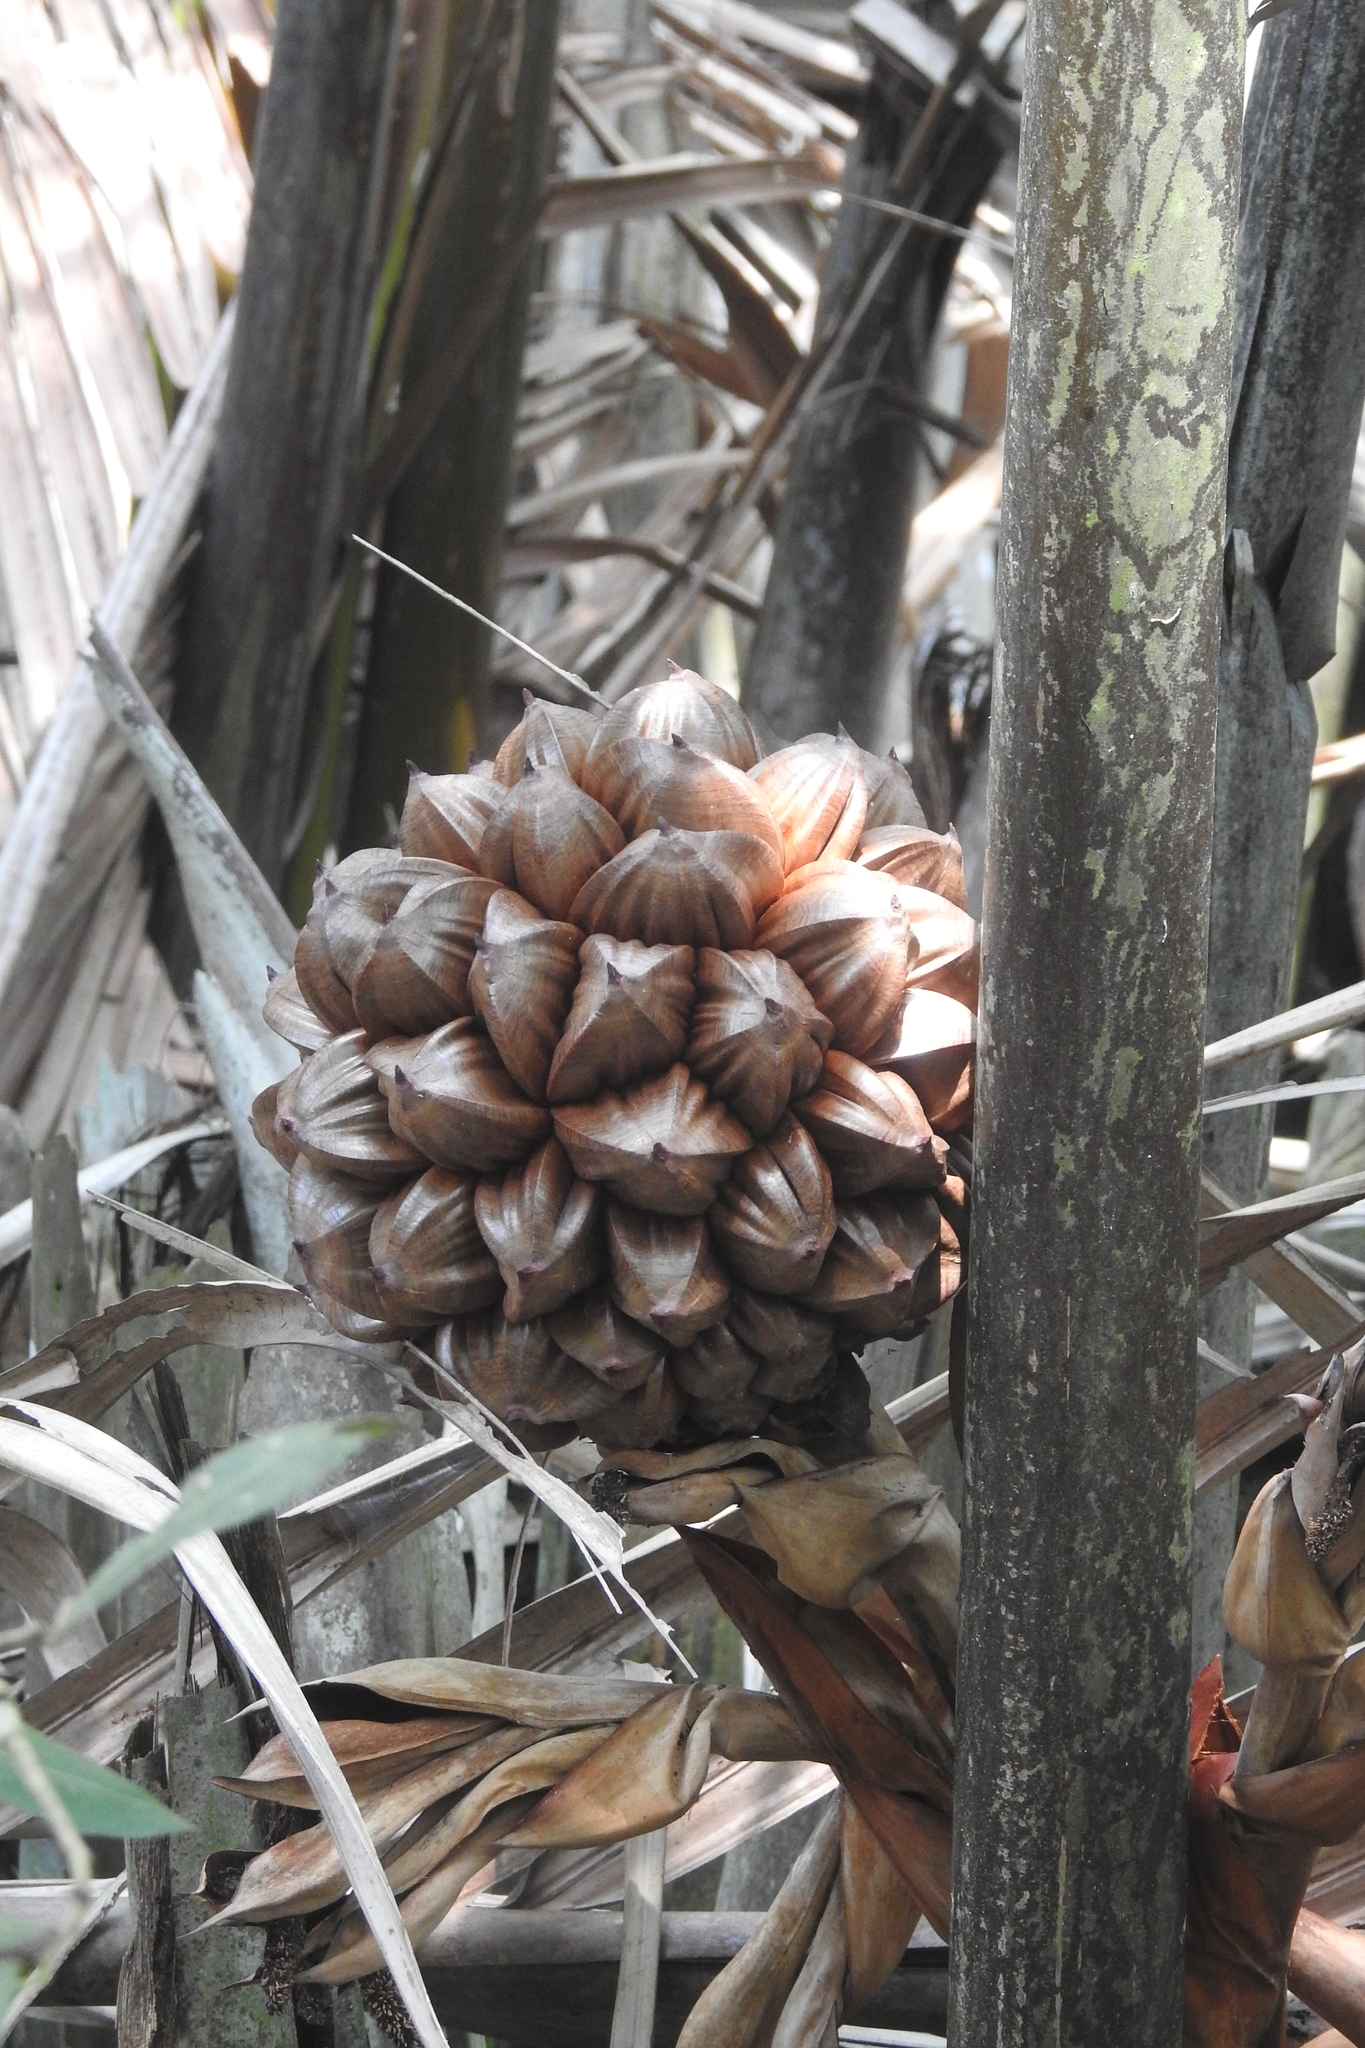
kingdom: Plantae
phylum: Tracheophyta
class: Liliopsida
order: Arecales
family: Arecaceae
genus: Nypa
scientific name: Nypa fruticans
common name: Mangrove palm
